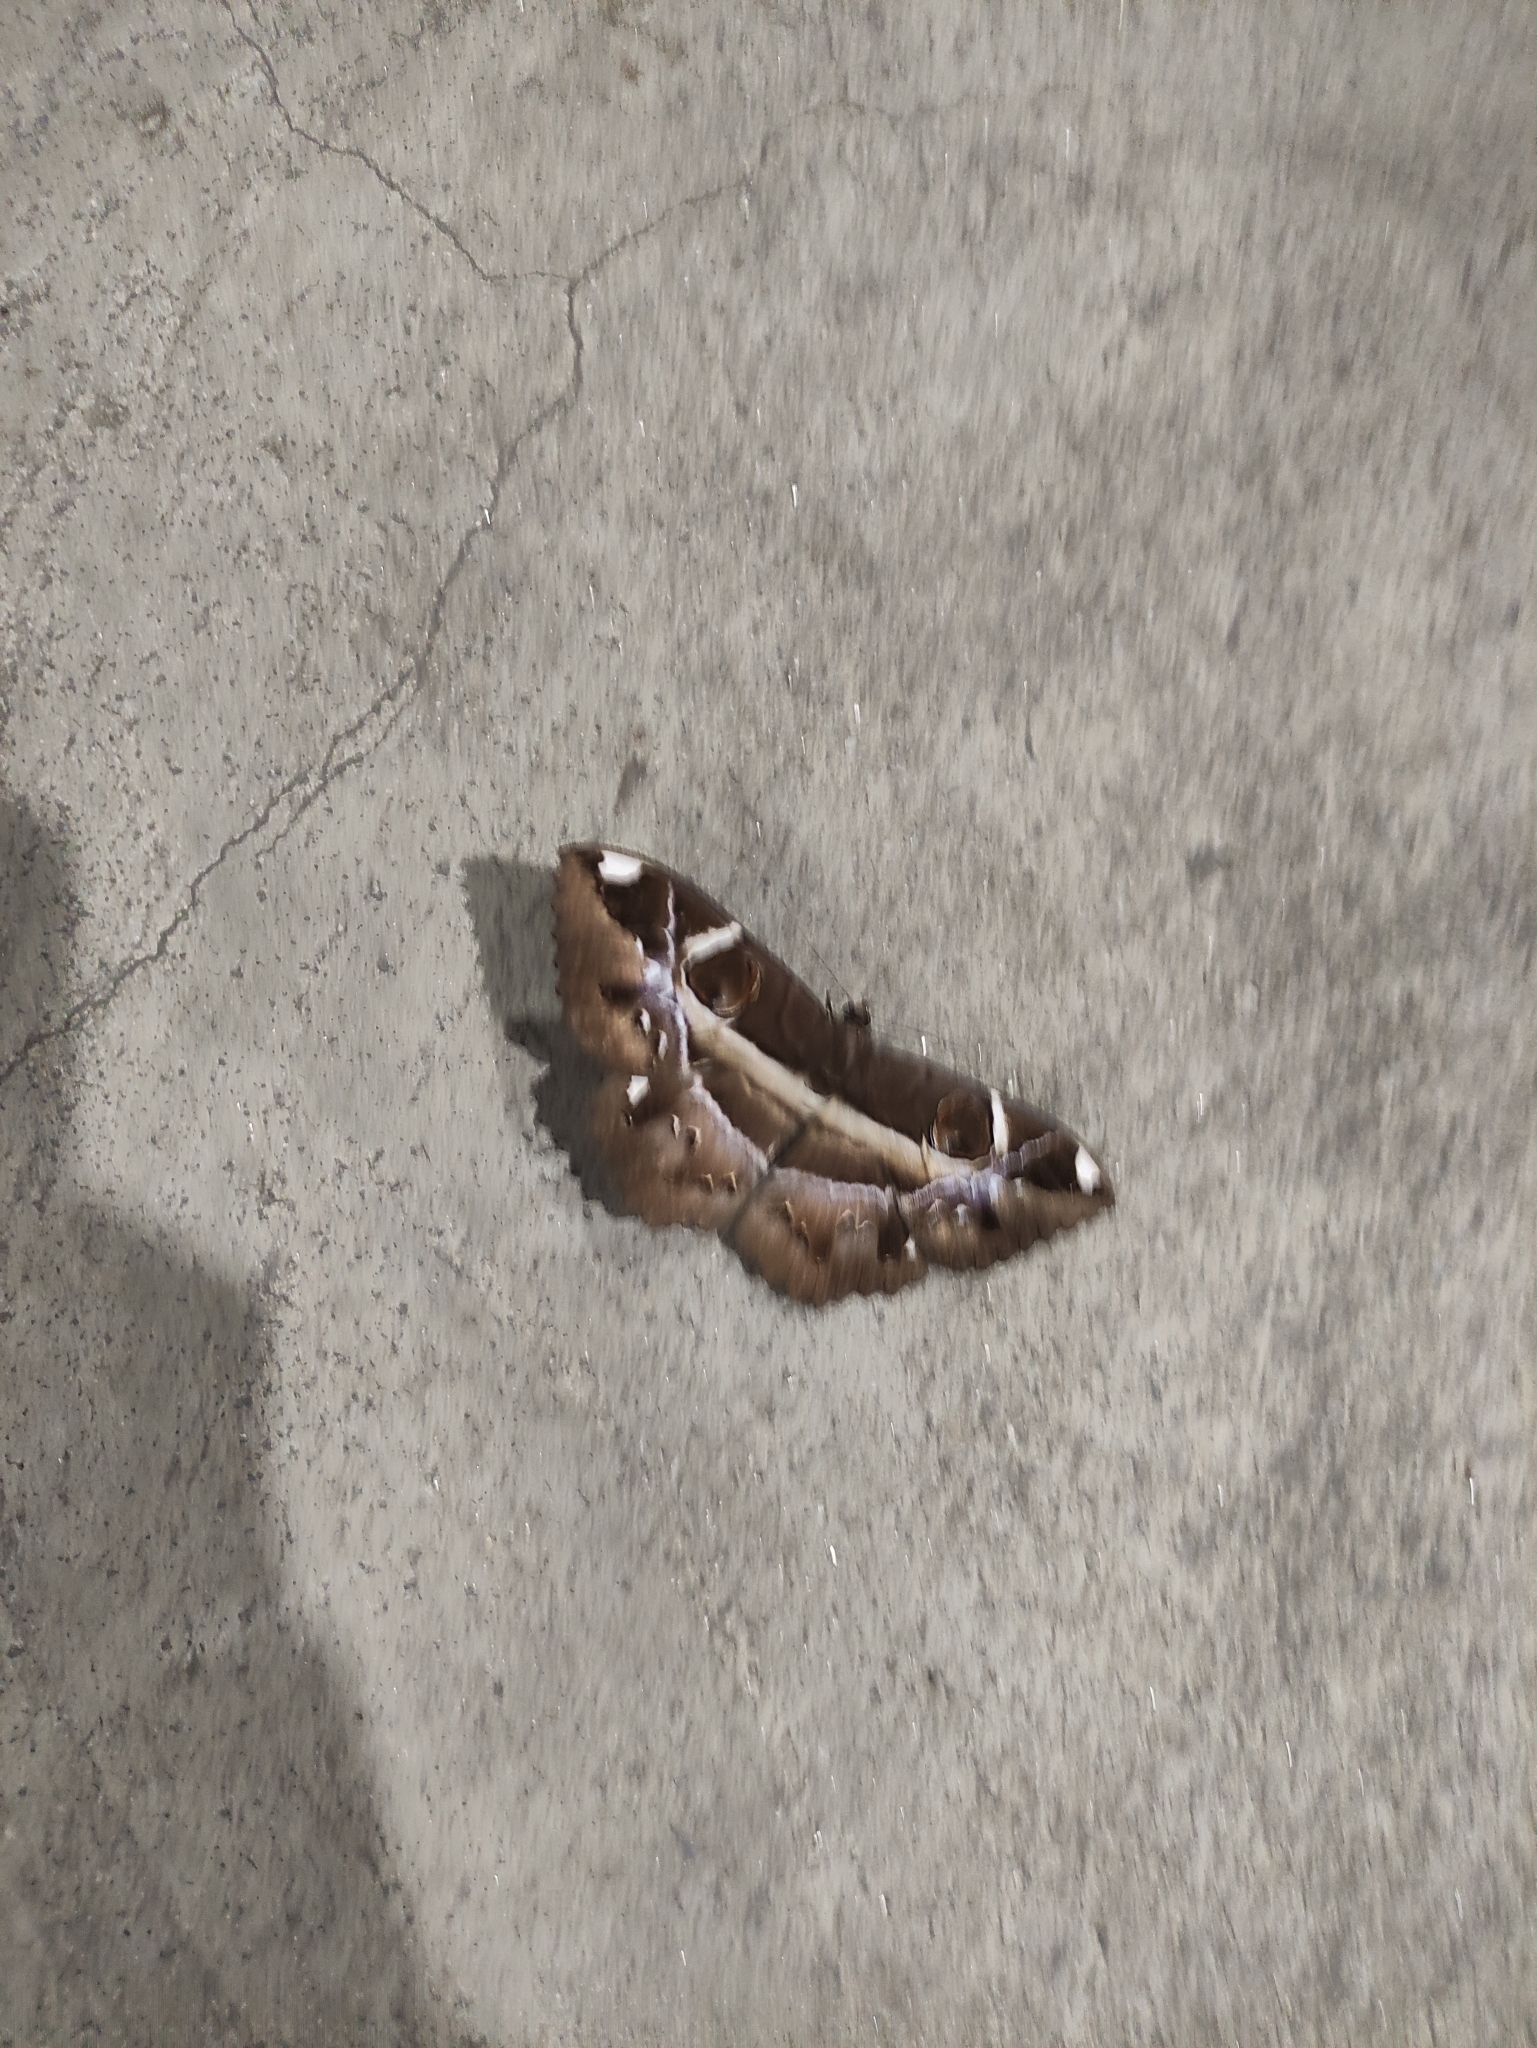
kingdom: Animalia
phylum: Arthropoda
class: Insecta
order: Lepidoptera
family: Erebidae
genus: Erebus
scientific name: Erebus ephesperis
